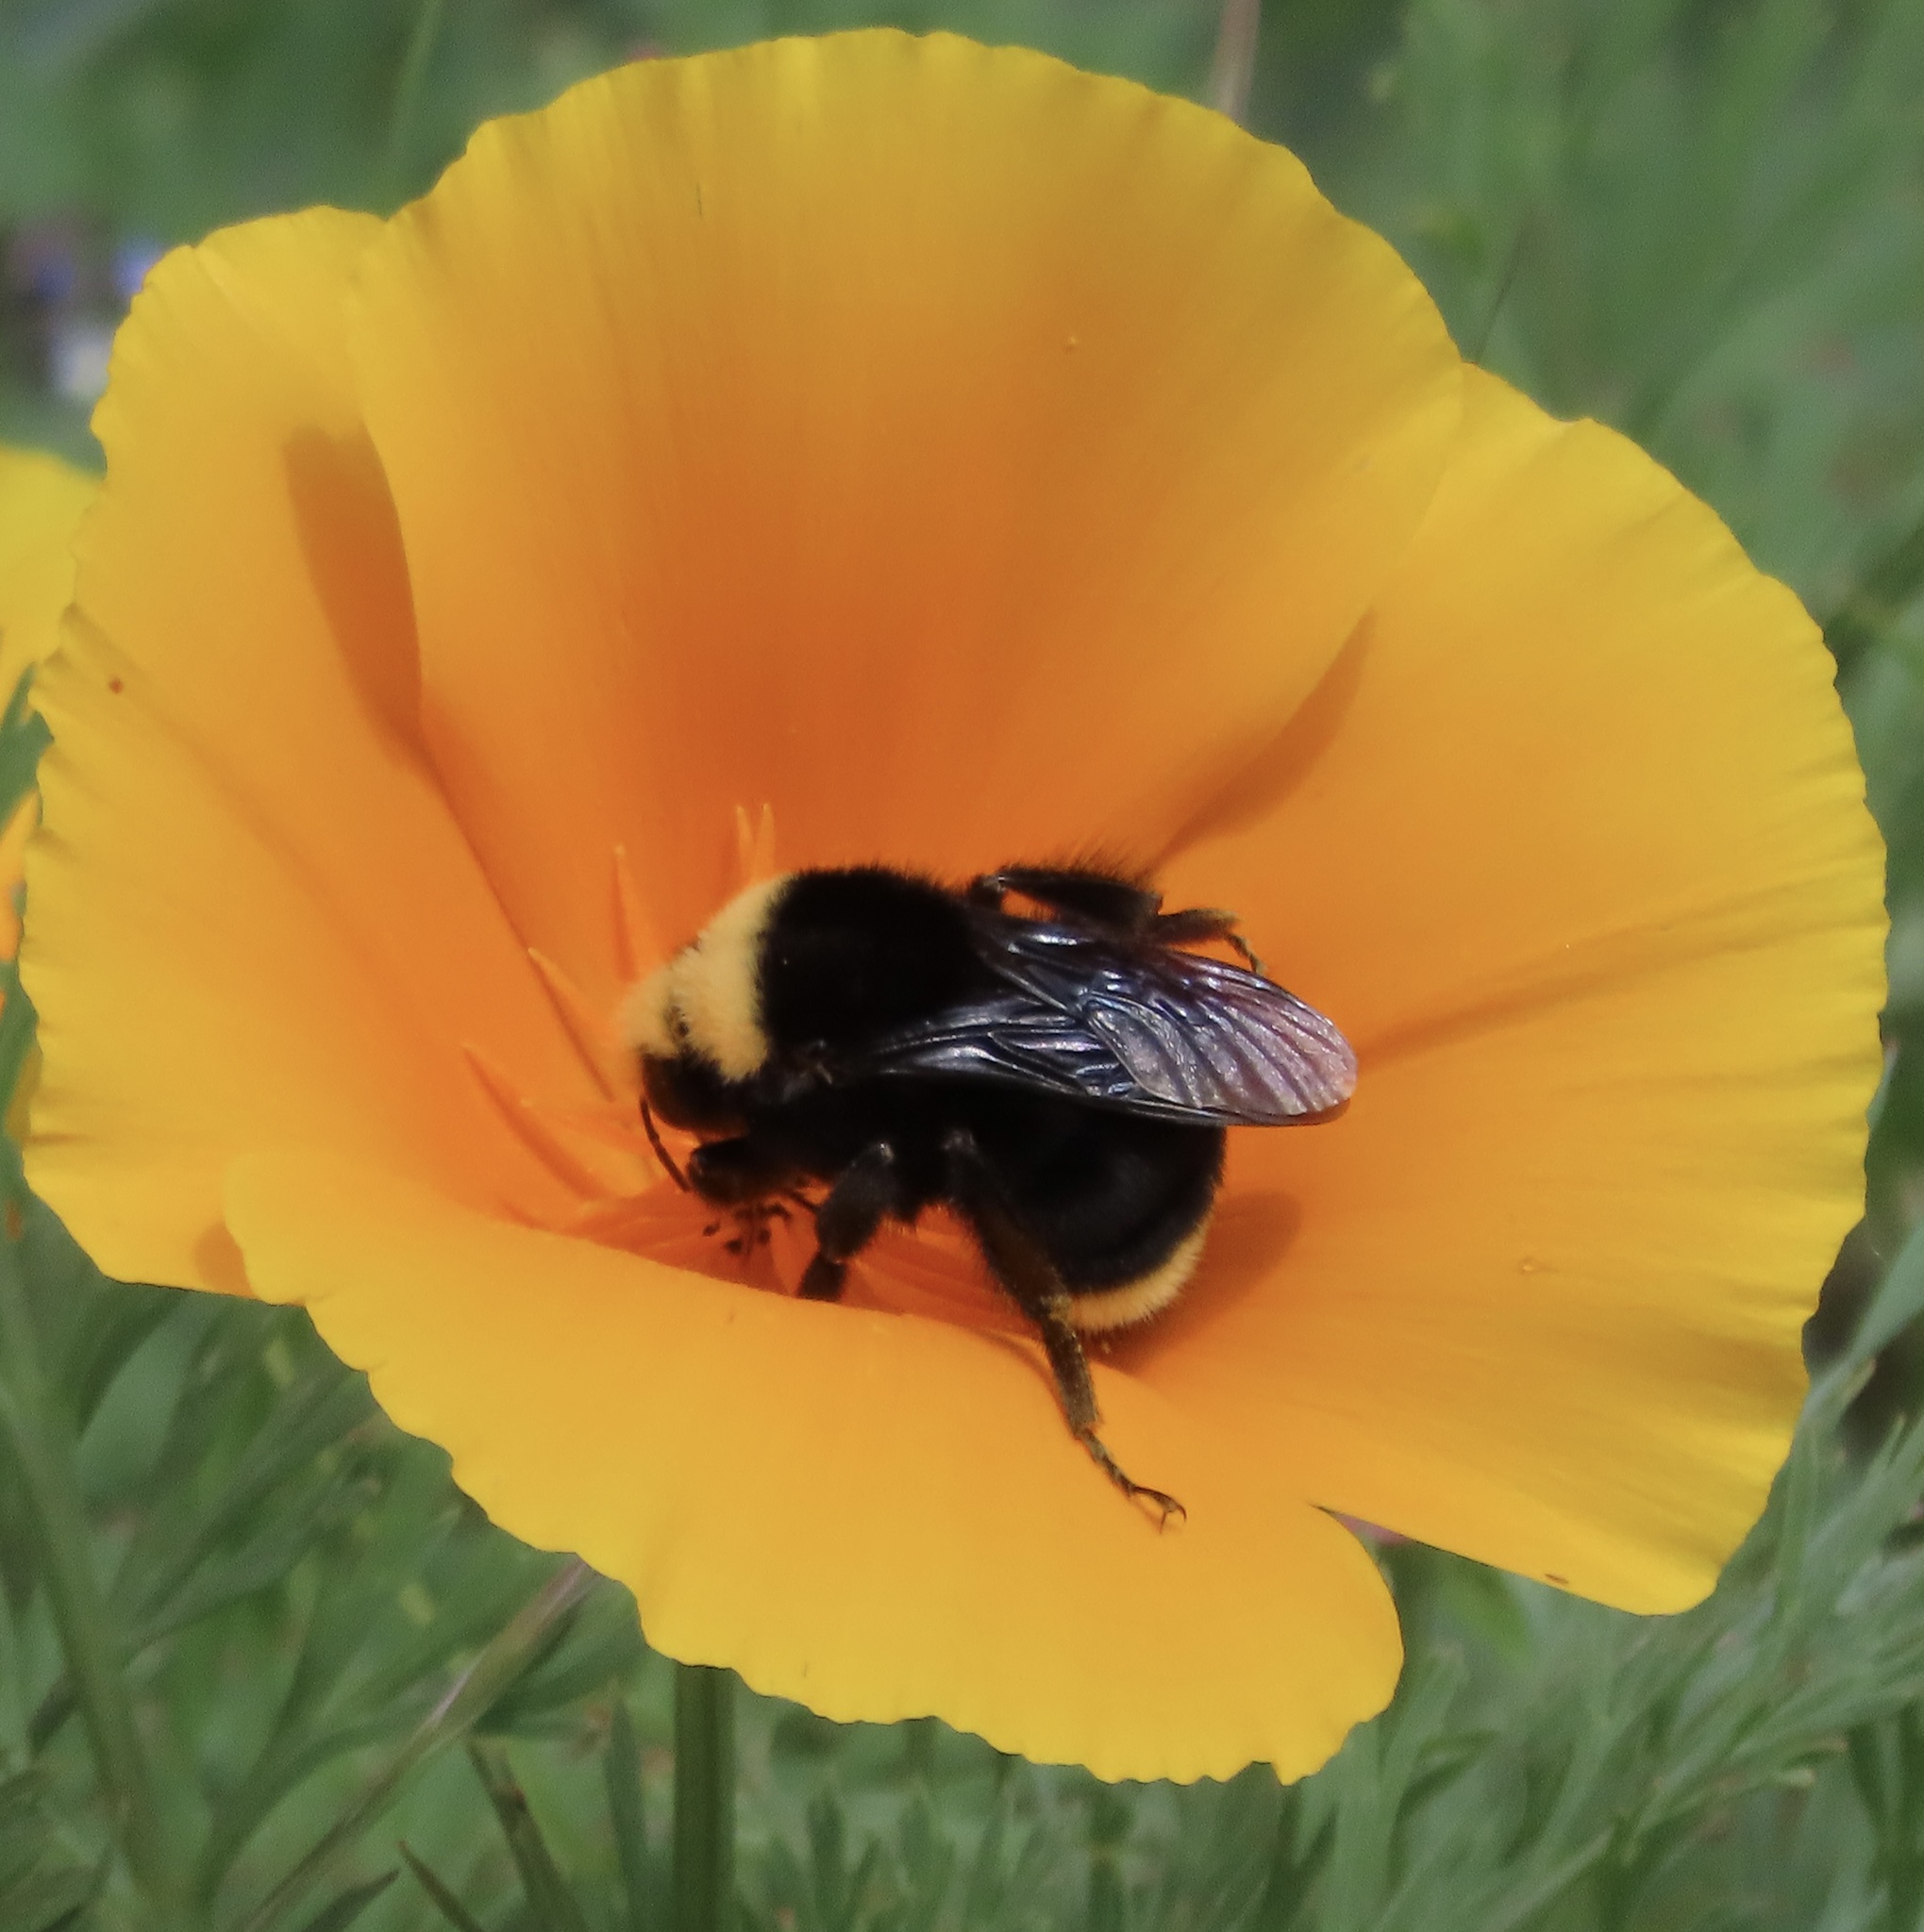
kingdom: Animalia
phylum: Arthropoda
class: Insecta
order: Hymenoptera
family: Apidae
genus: Bombus
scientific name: Bombus vosnesenskii
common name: Vosnesensky bumble bee
